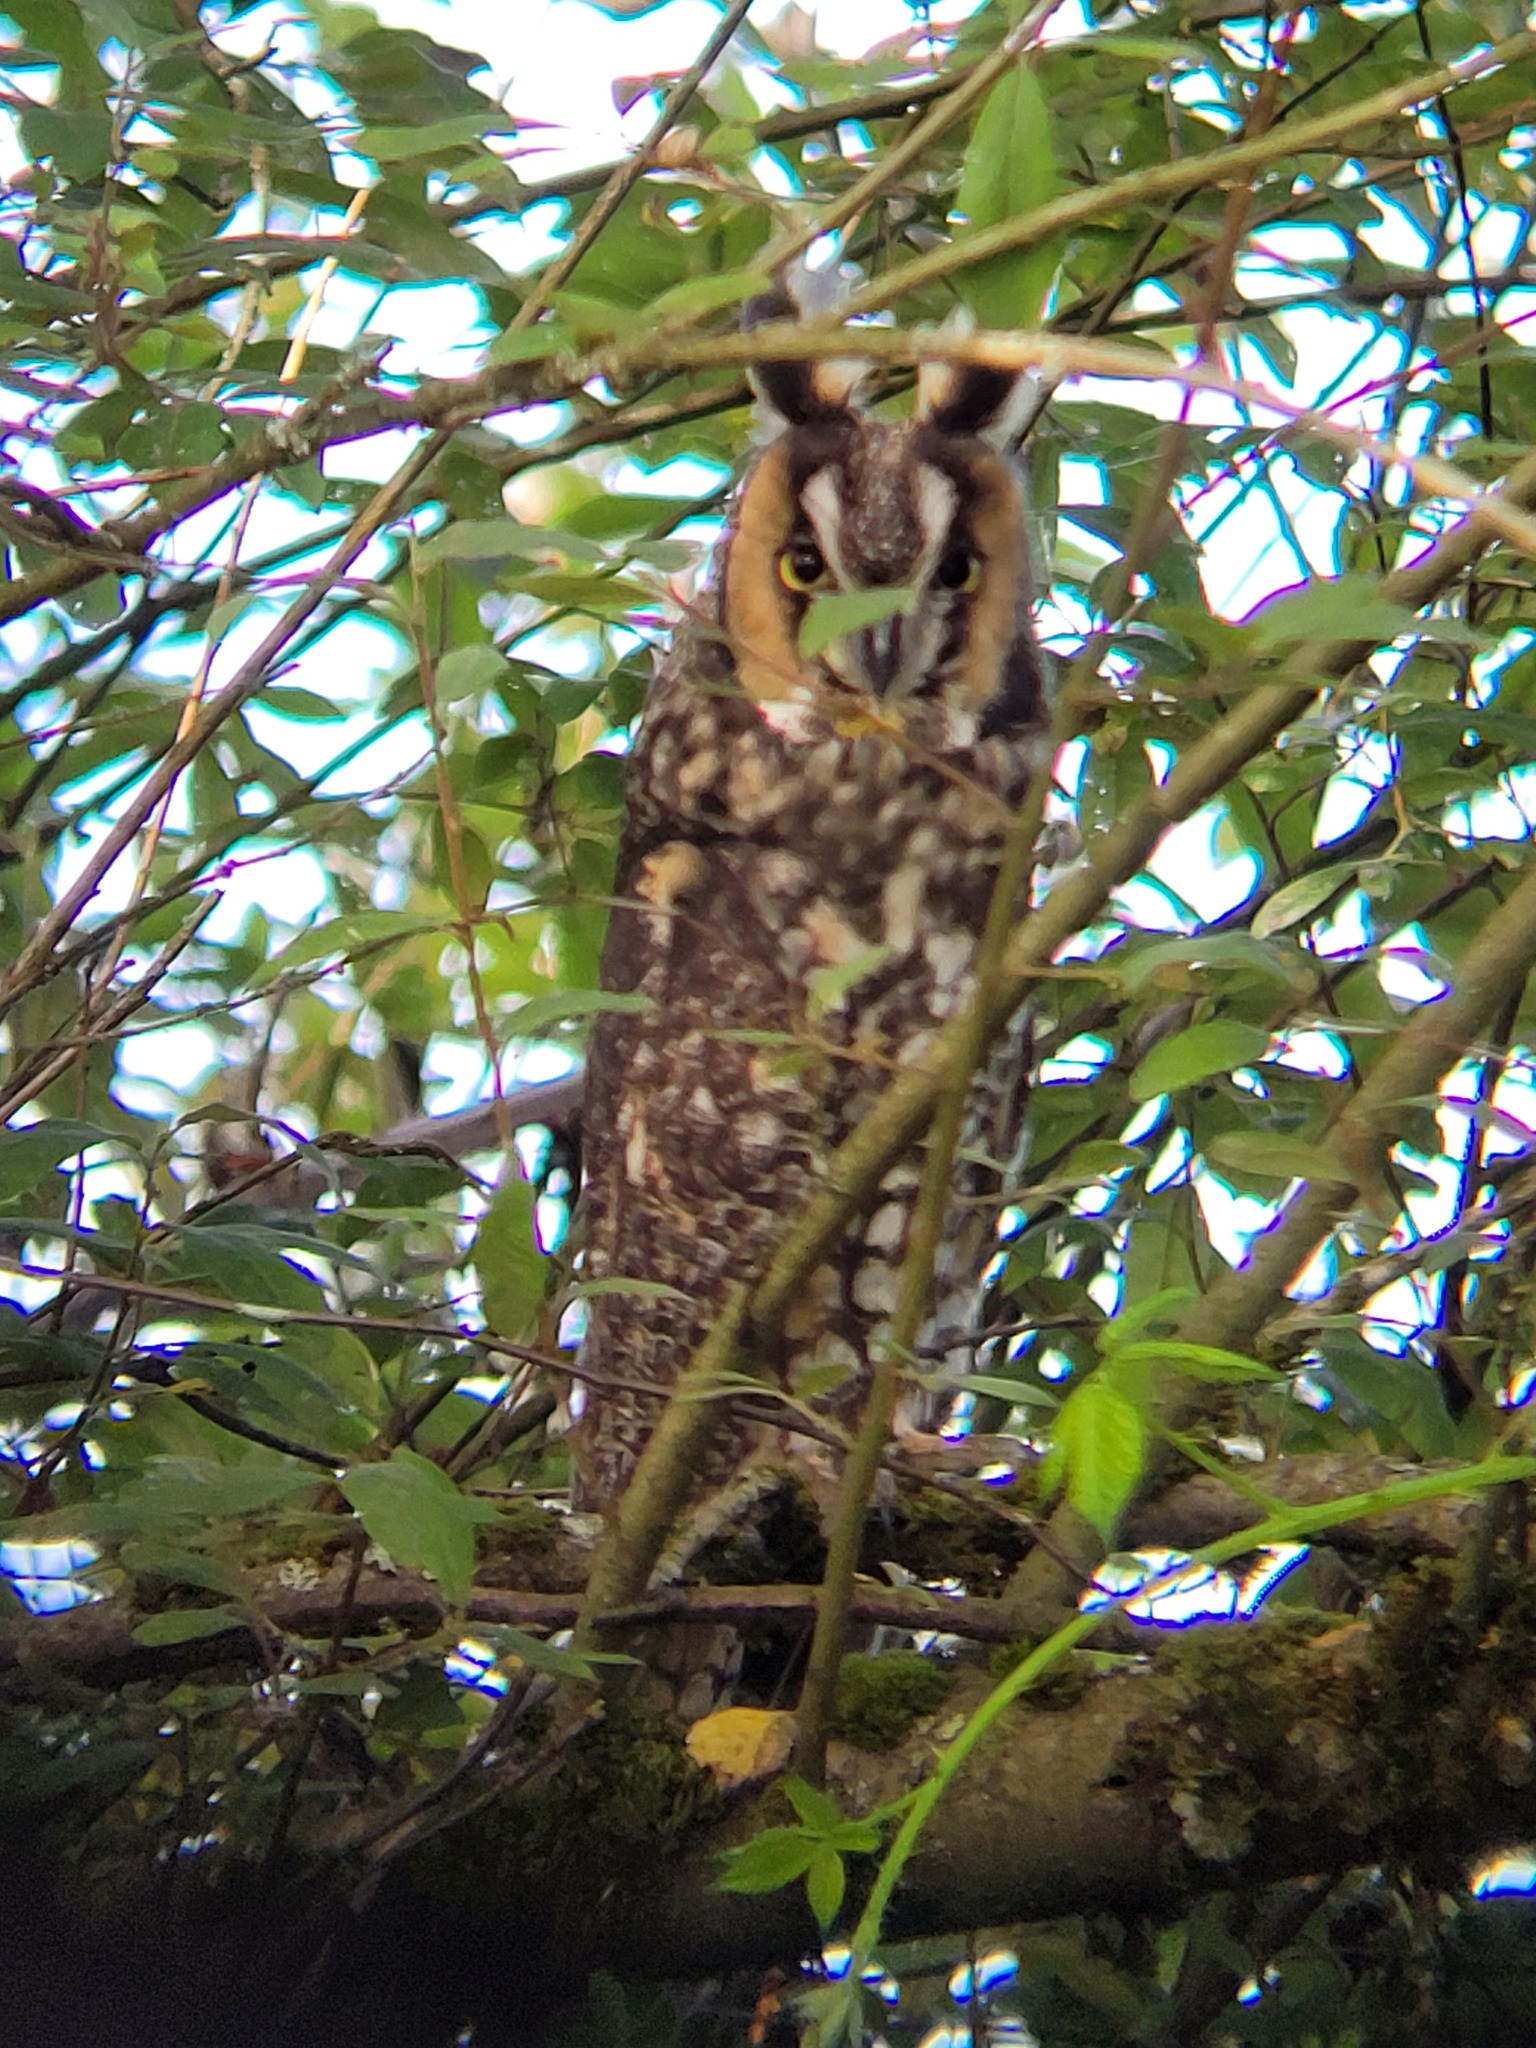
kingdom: Animalia
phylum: Chordata
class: Aves
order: Strigiformes
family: Strigidae
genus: Asio
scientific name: Asio otus
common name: Long-eared owl
